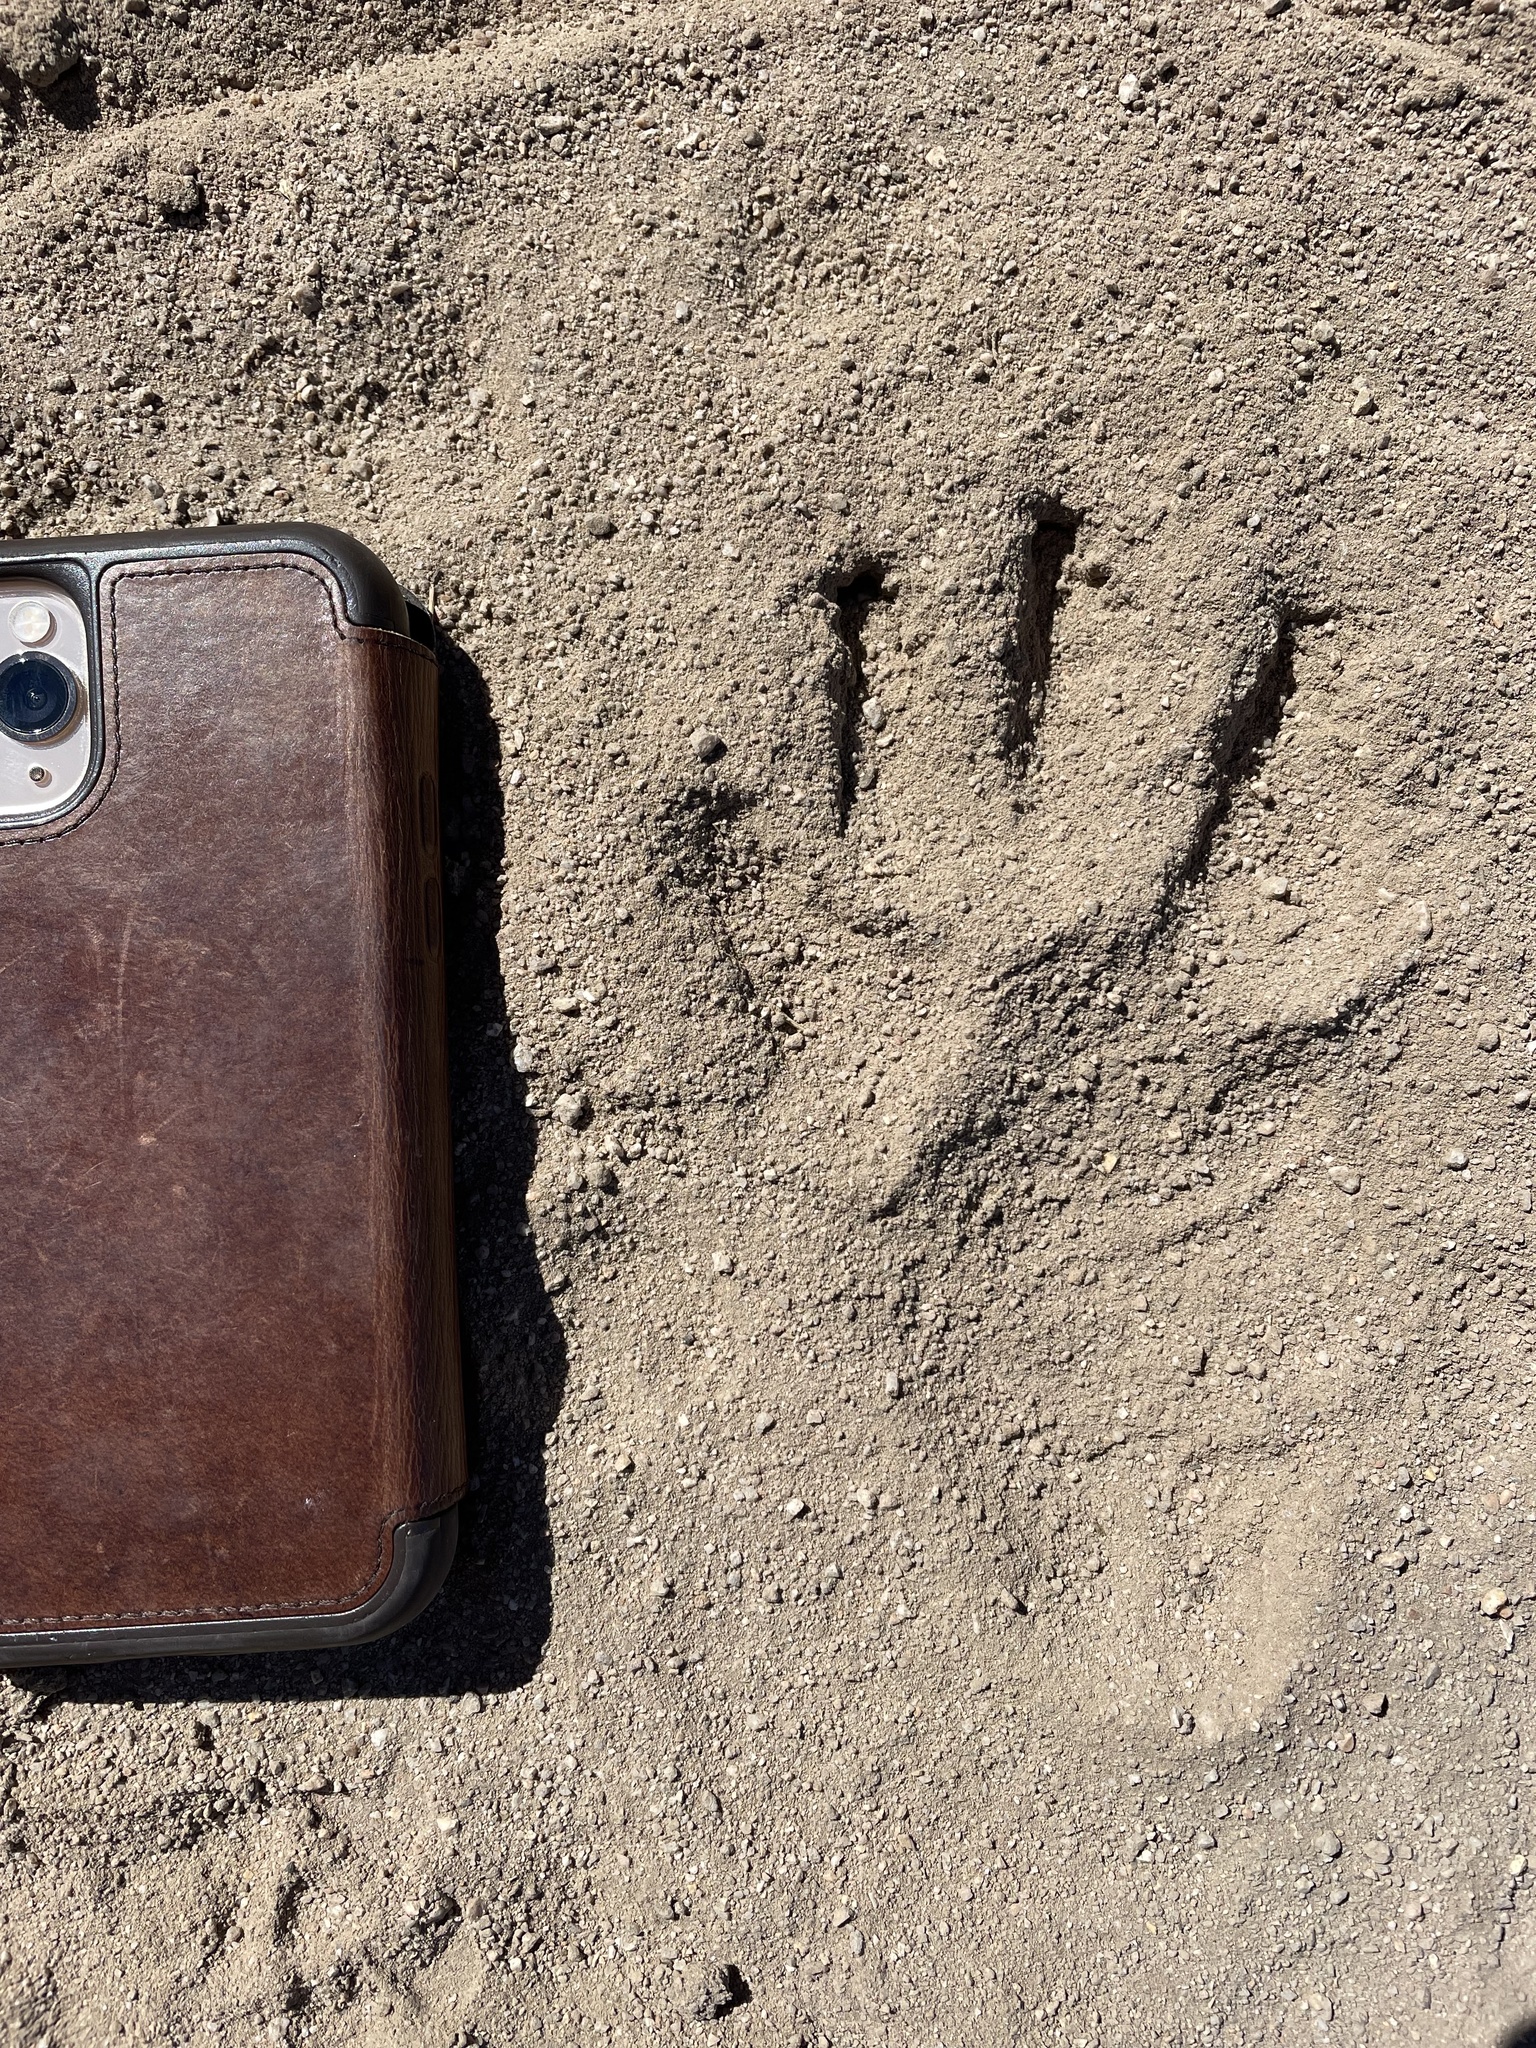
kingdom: Animalia
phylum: Chordata
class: Mammalia
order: Carnivora
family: Procyonidae
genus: Procyon
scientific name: Procyon lotor
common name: Raccoon
